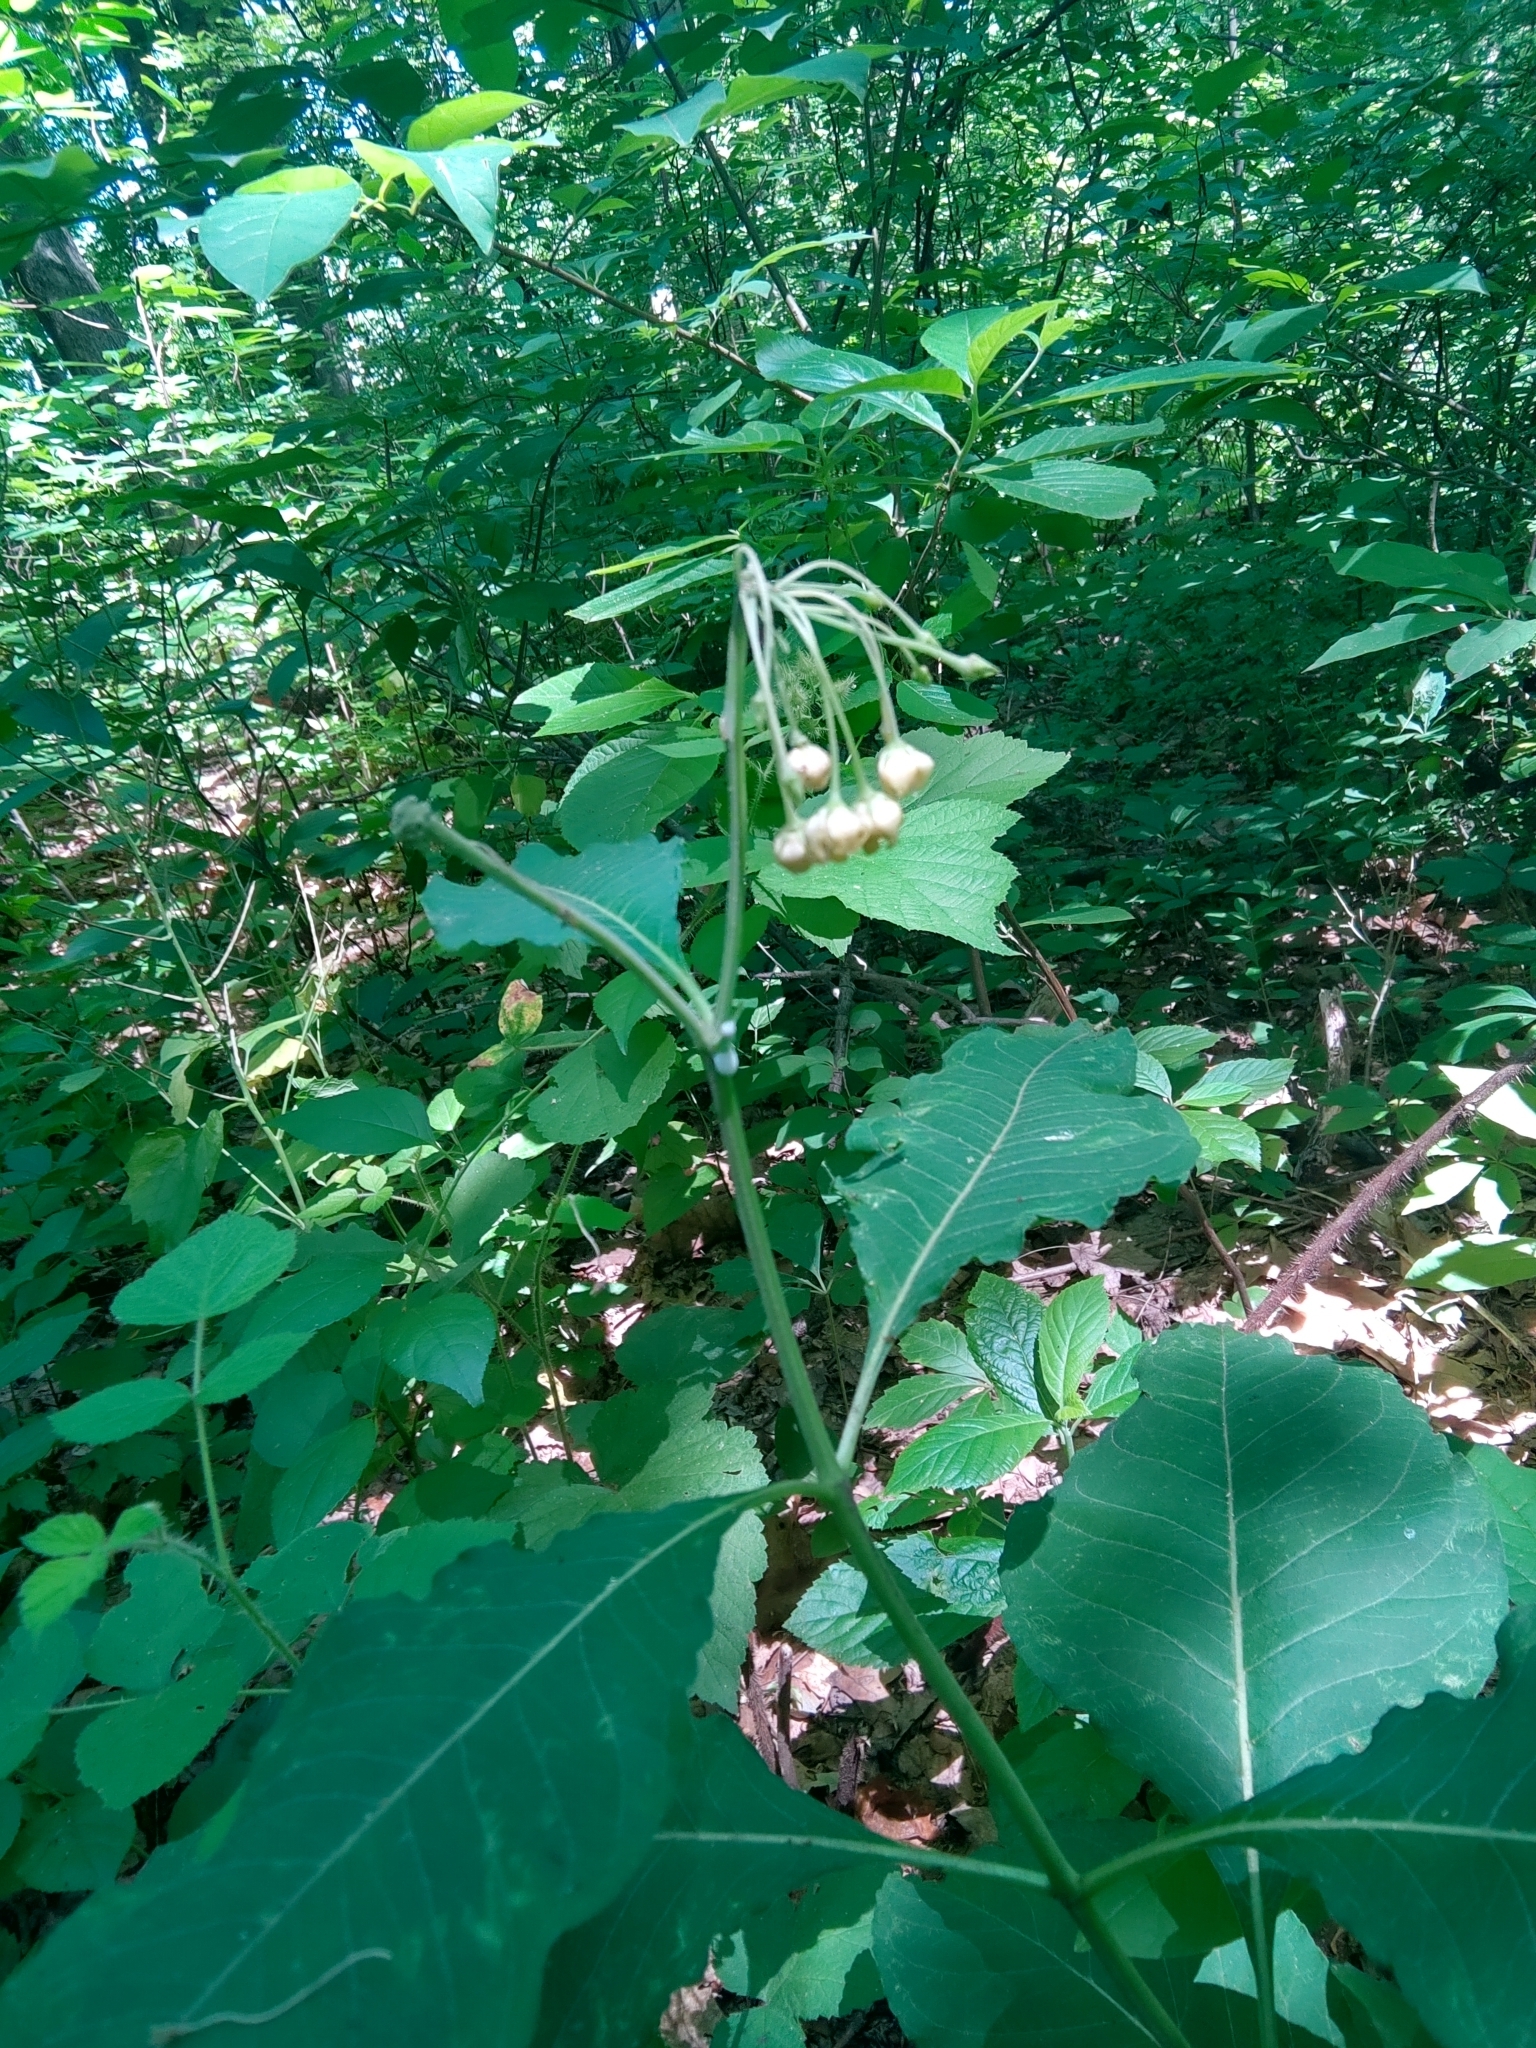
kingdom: Plantae
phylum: Tracheophyta
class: Magnoliopsida
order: Gentianales
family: Apocynaceae
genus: Asclepias
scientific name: Asclepias exaltata
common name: Poke milkweed
